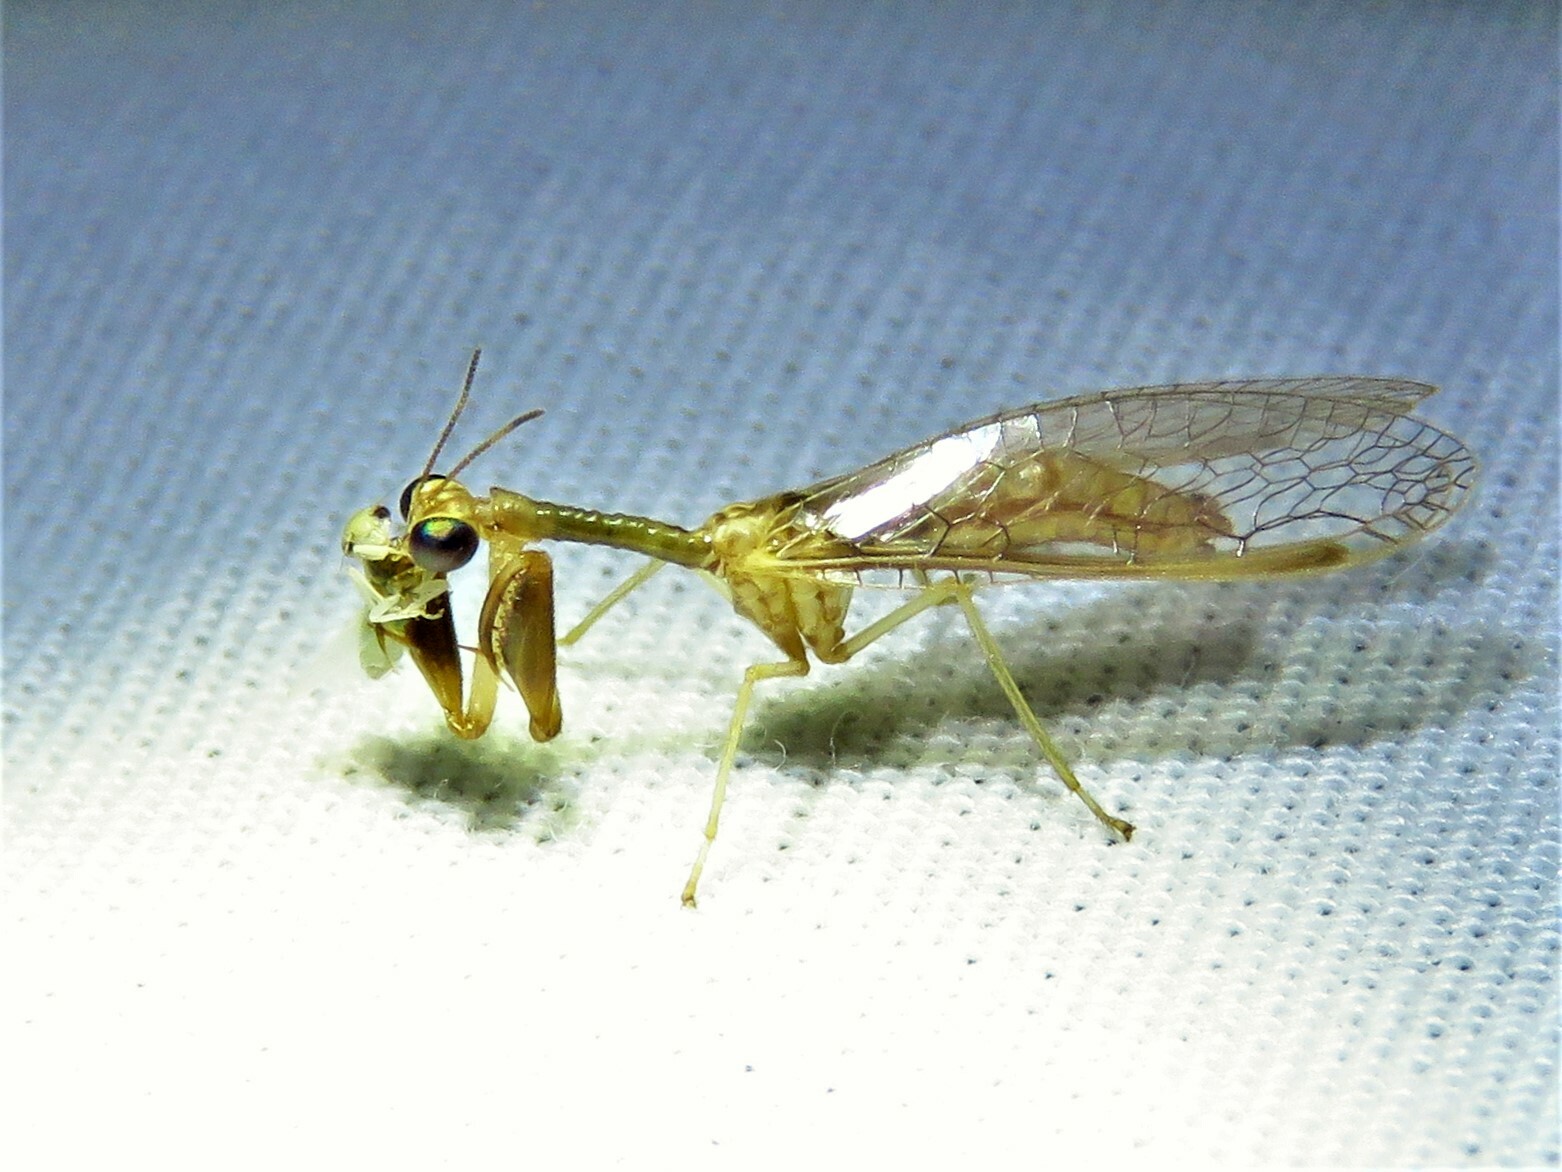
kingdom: Animalia
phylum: Arthropoda
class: Insecta
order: Neuroptera
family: Mantispidae
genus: Dicromantispa
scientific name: Dicromantispa sayi
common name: Say's mantidfly
